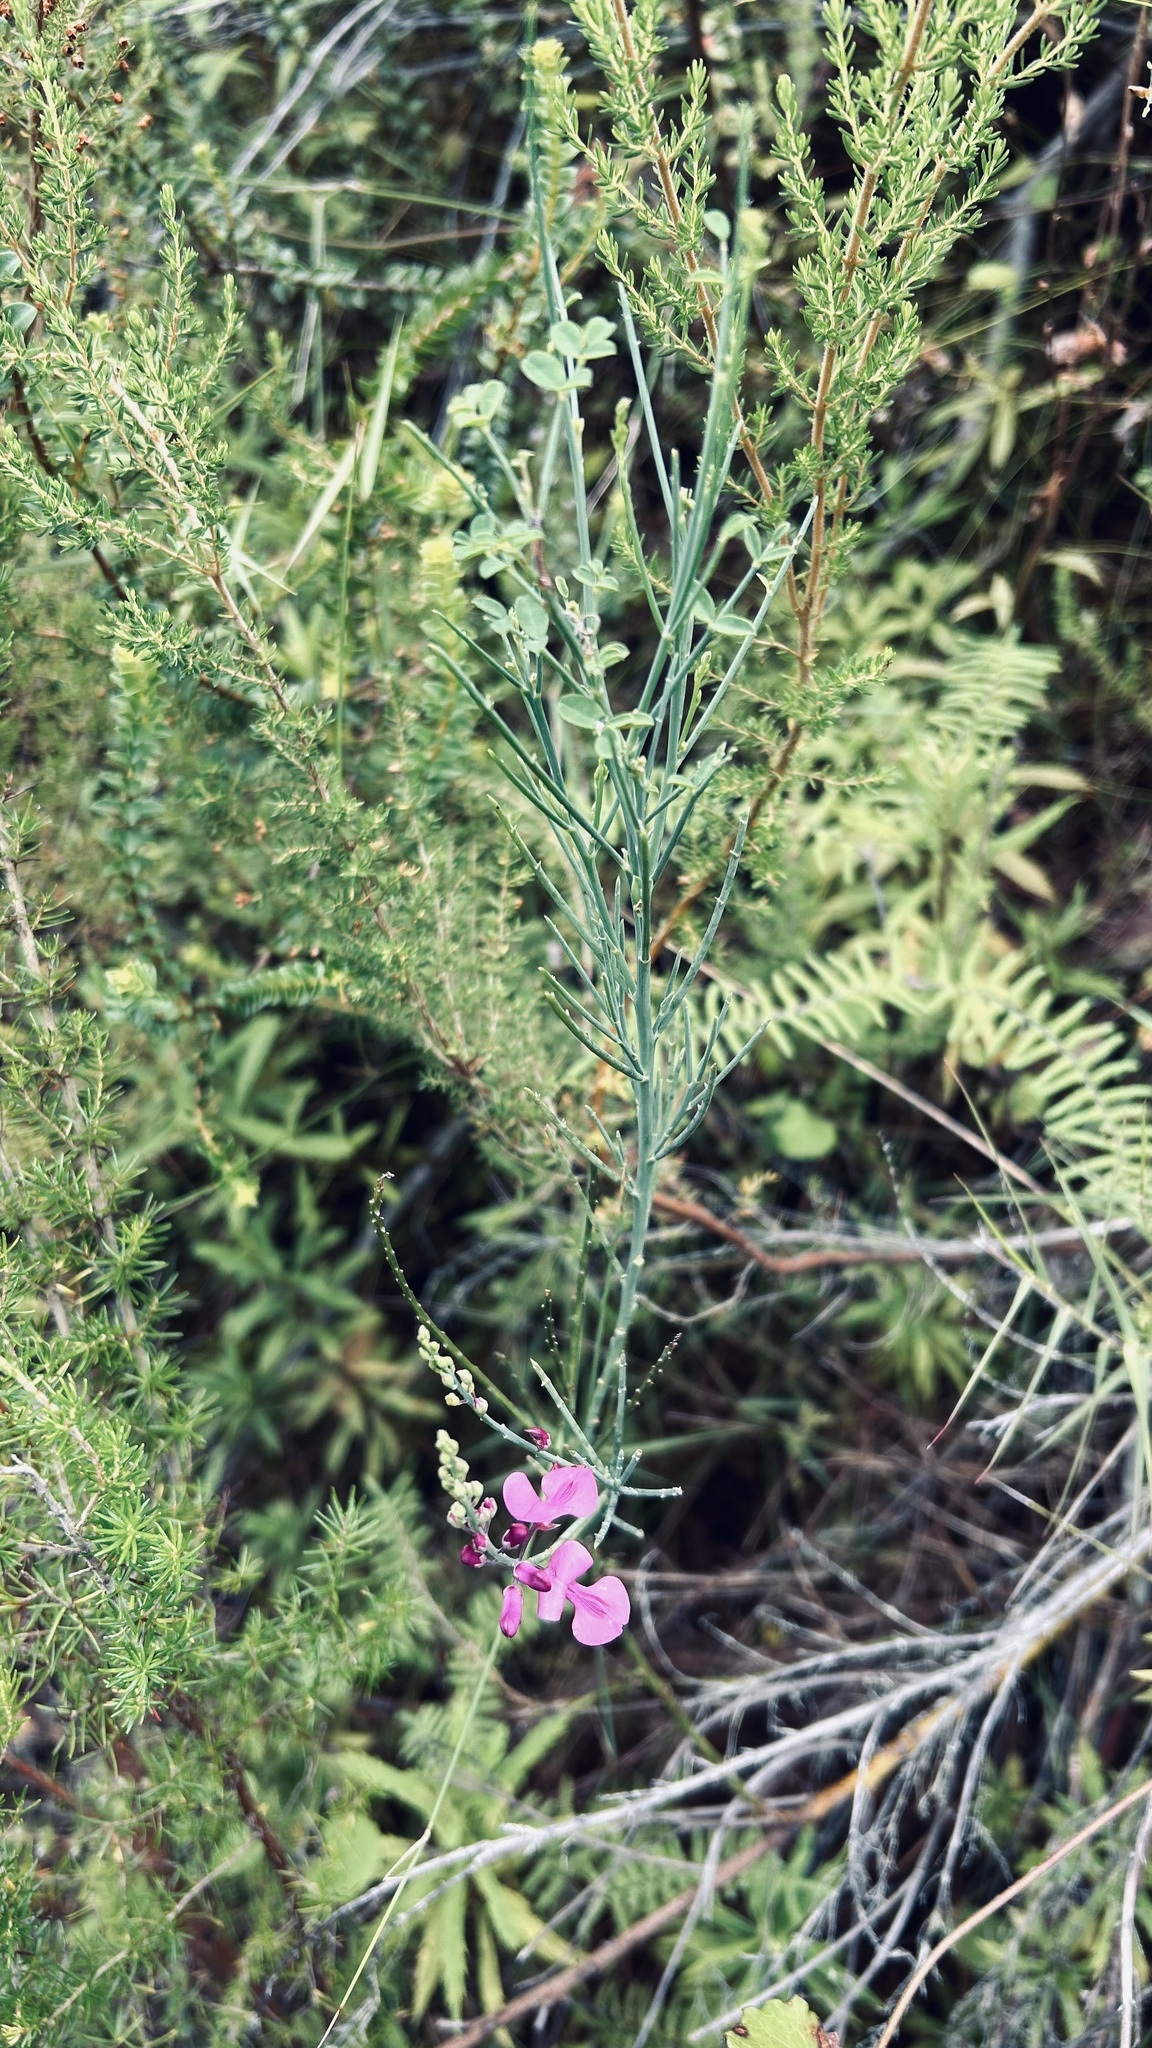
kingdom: Plantae
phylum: Tracheophyta
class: Magnoliopsida
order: Fabales
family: Fabaceae
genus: Indigofera
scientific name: Indigofera filifolia
